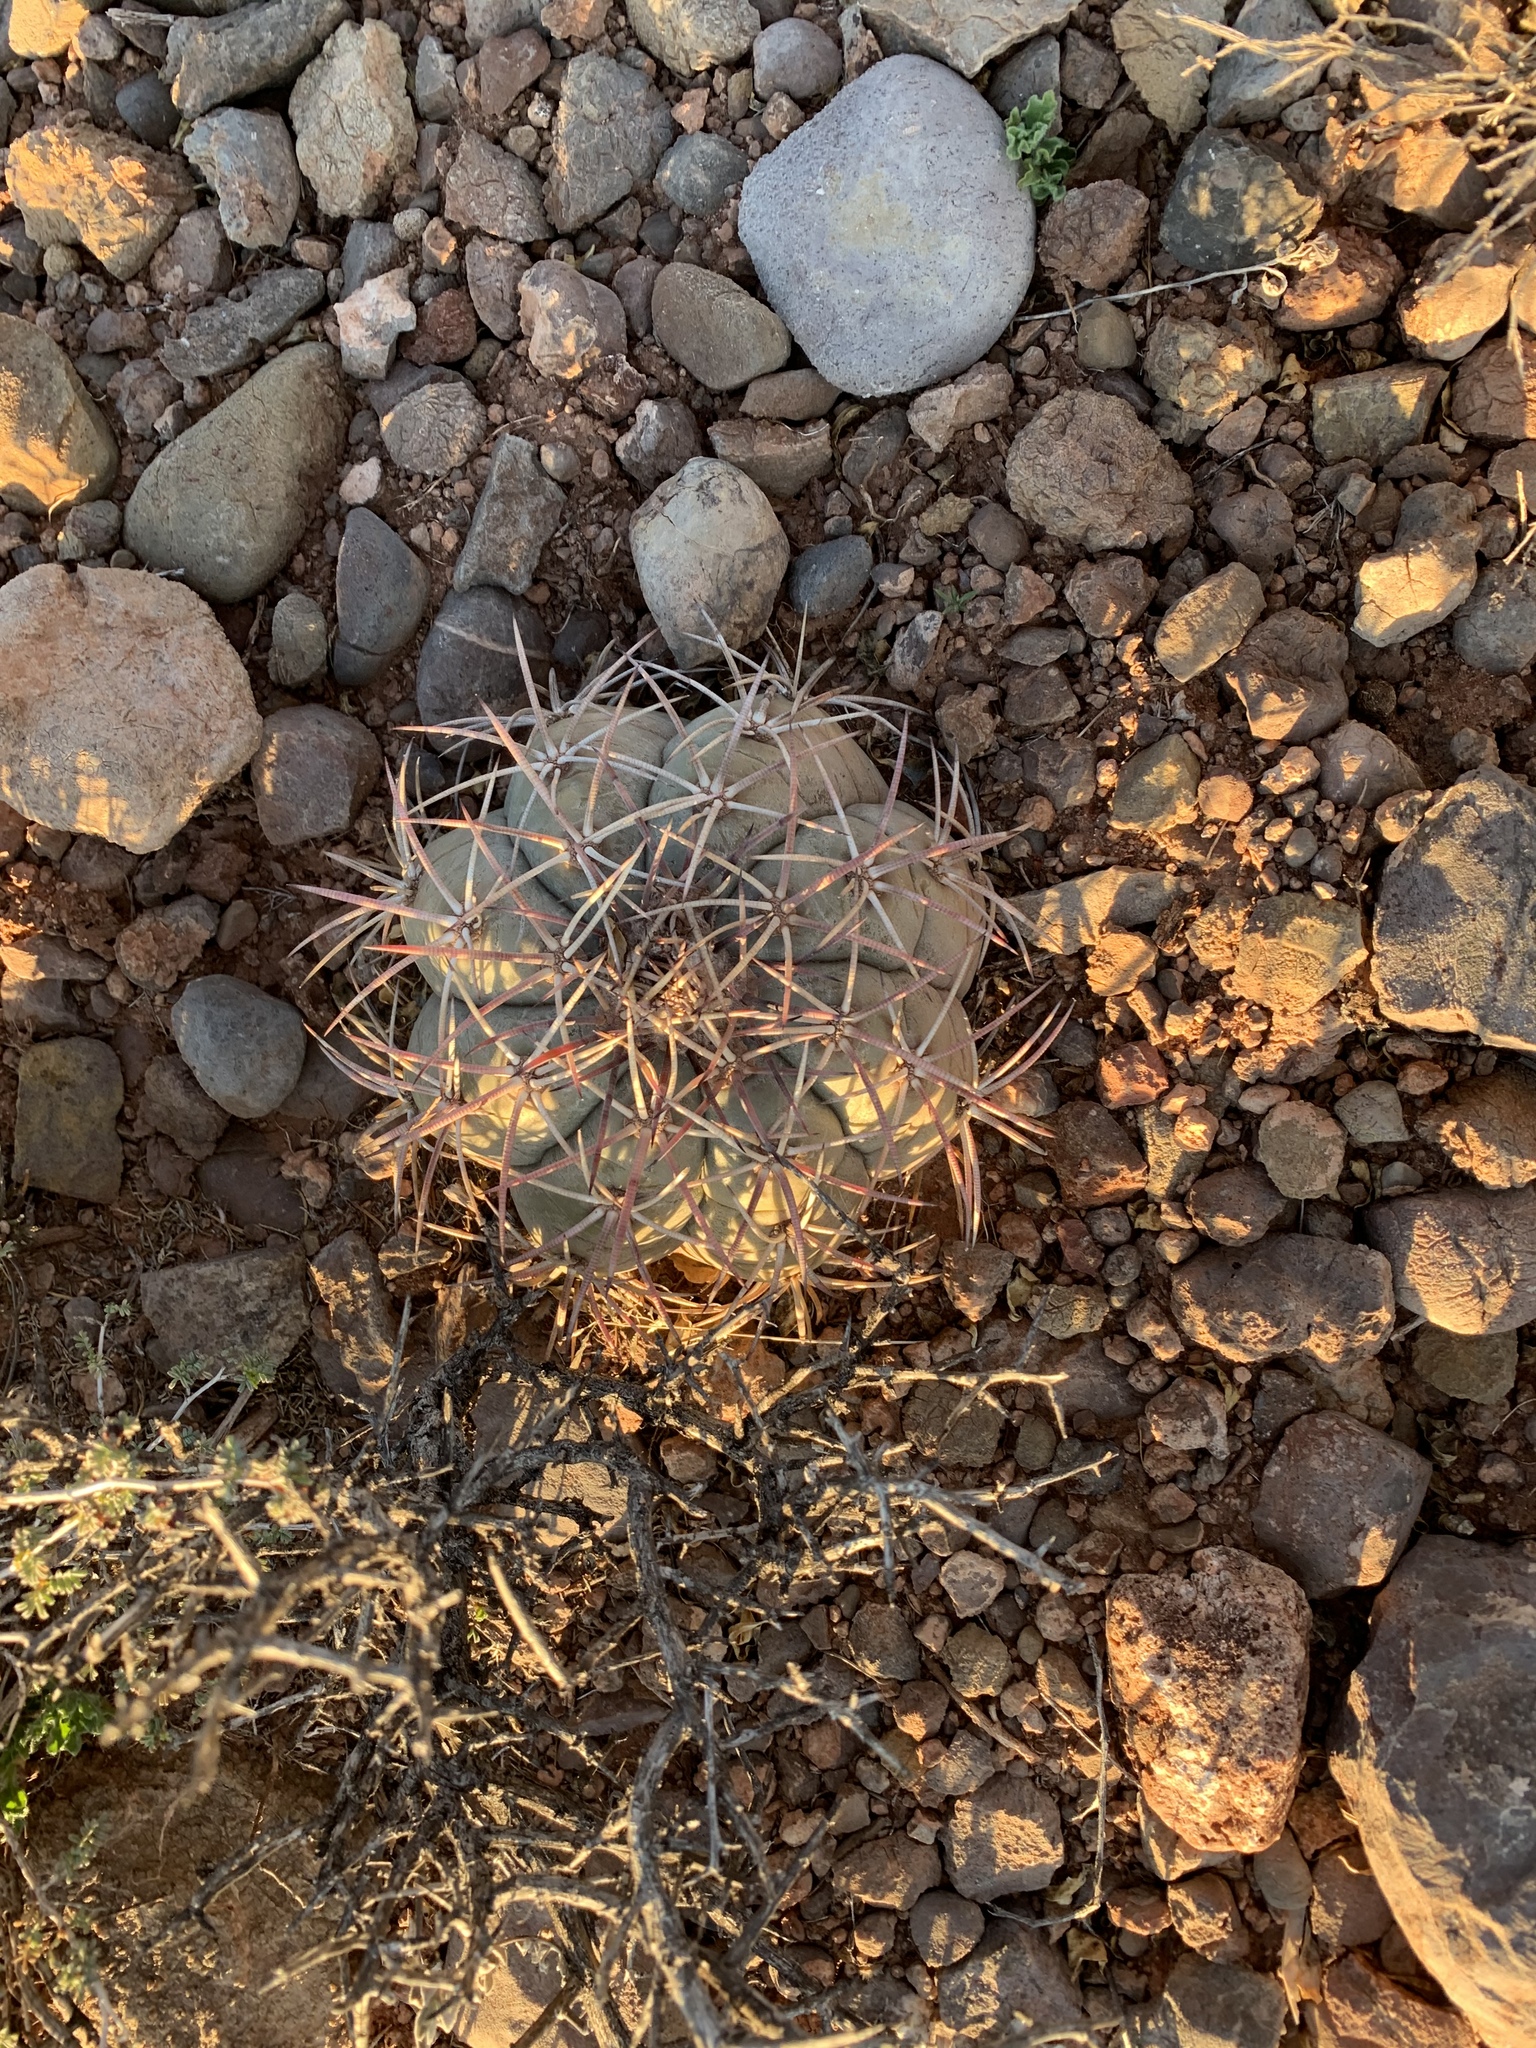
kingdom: Plantae
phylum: Tracheophyta
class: Magnoliopsida
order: Caryophyllales
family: Cactaceae
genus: Echinocactus
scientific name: Echinocactus horizonthalonius
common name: Devilshead
